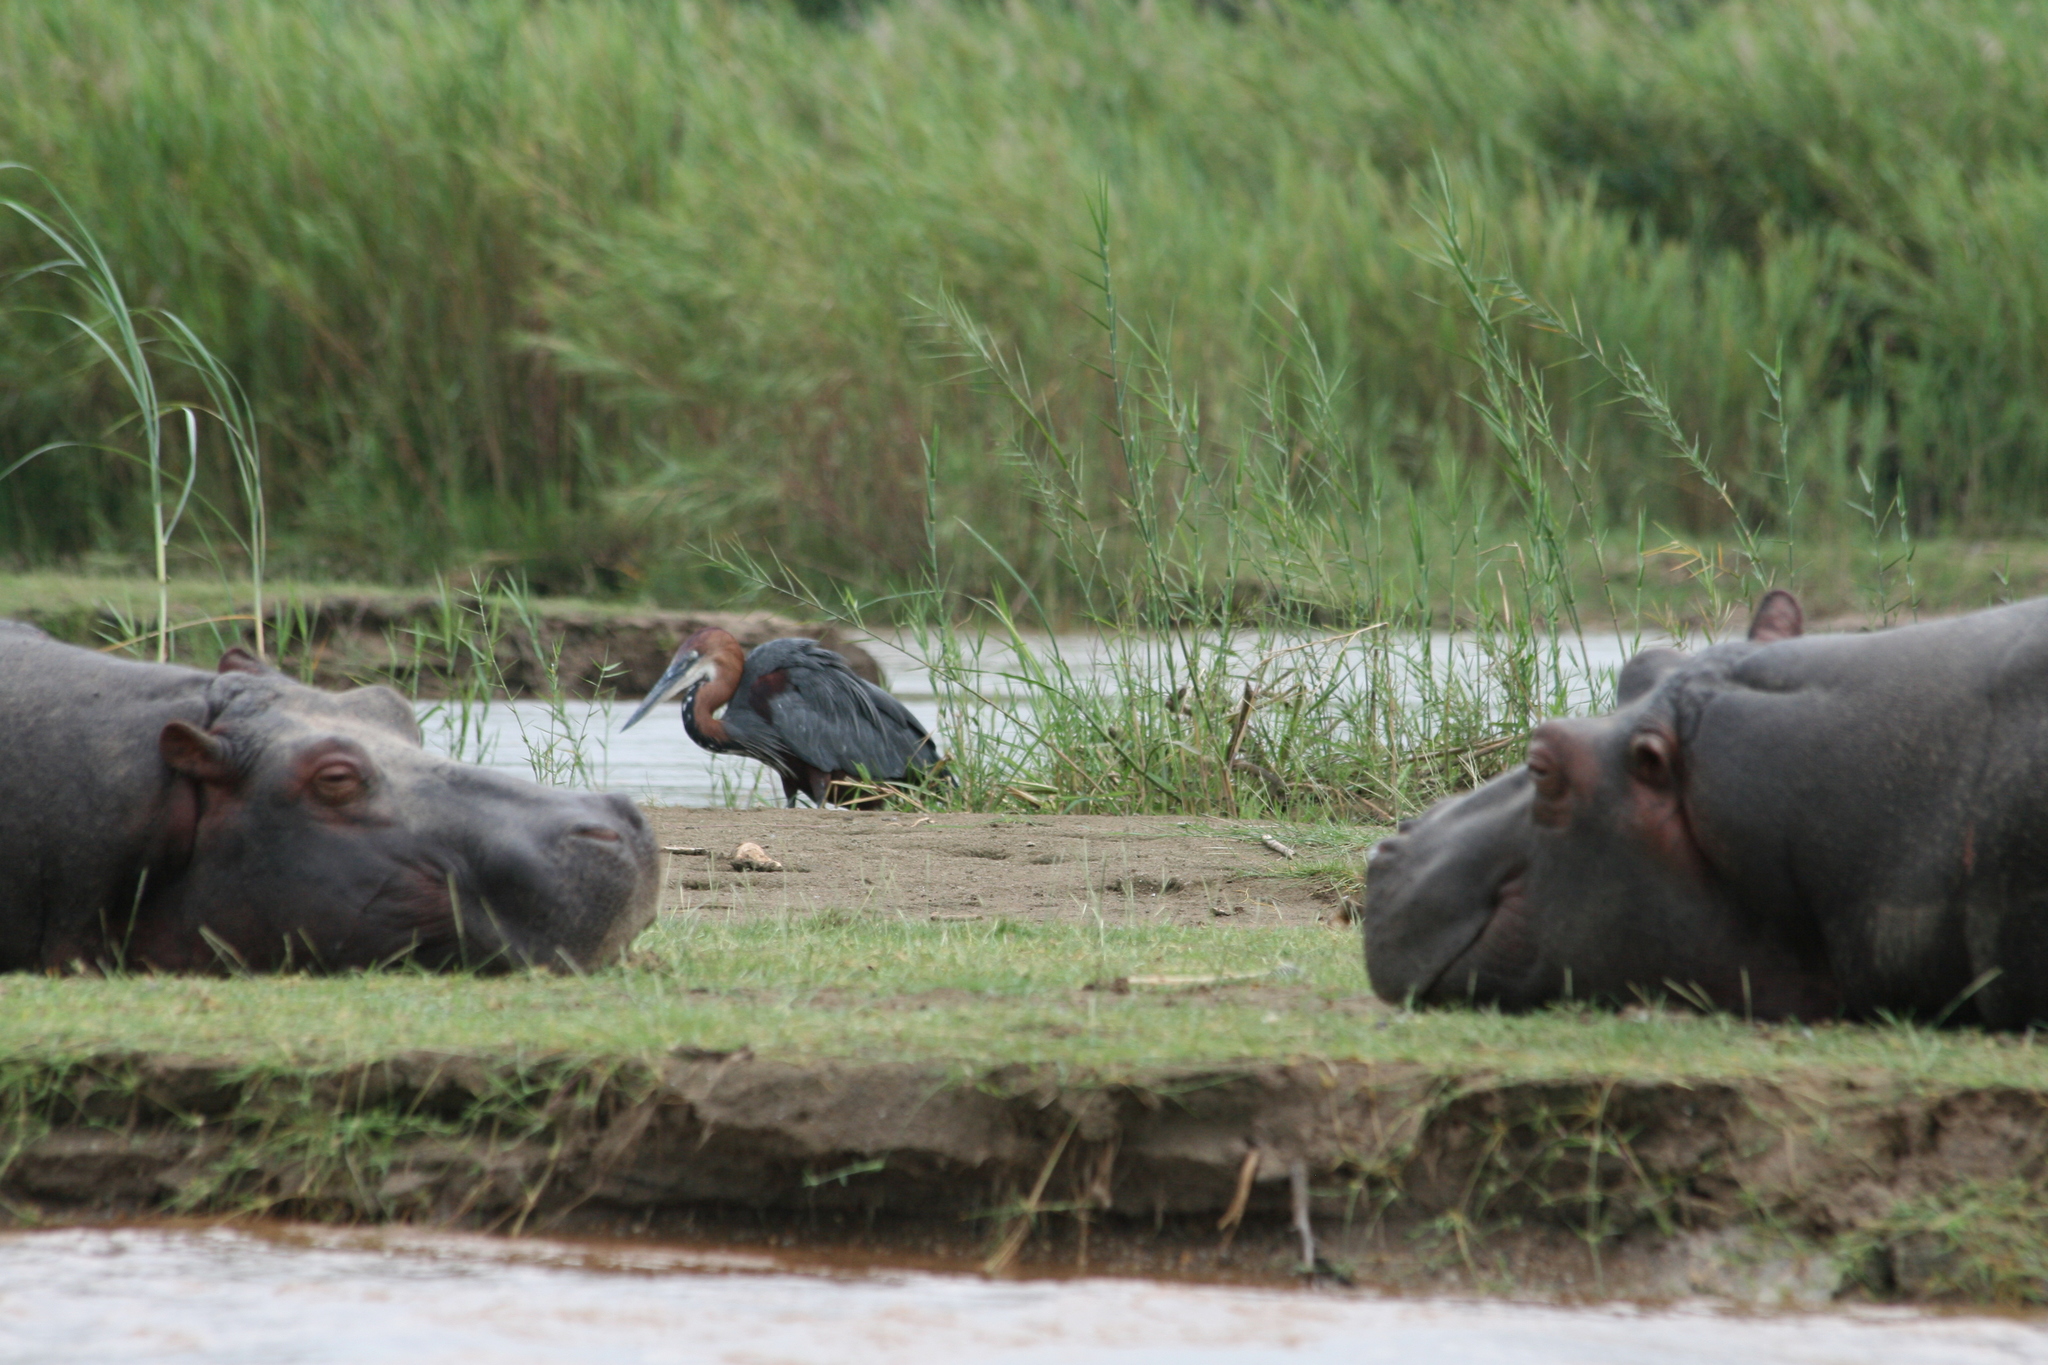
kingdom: Animalia
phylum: Chordata
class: Aves
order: Pelecaniformes
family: Ardeidae
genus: Ardea
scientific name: Ardea goliath
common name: Goliath heron
